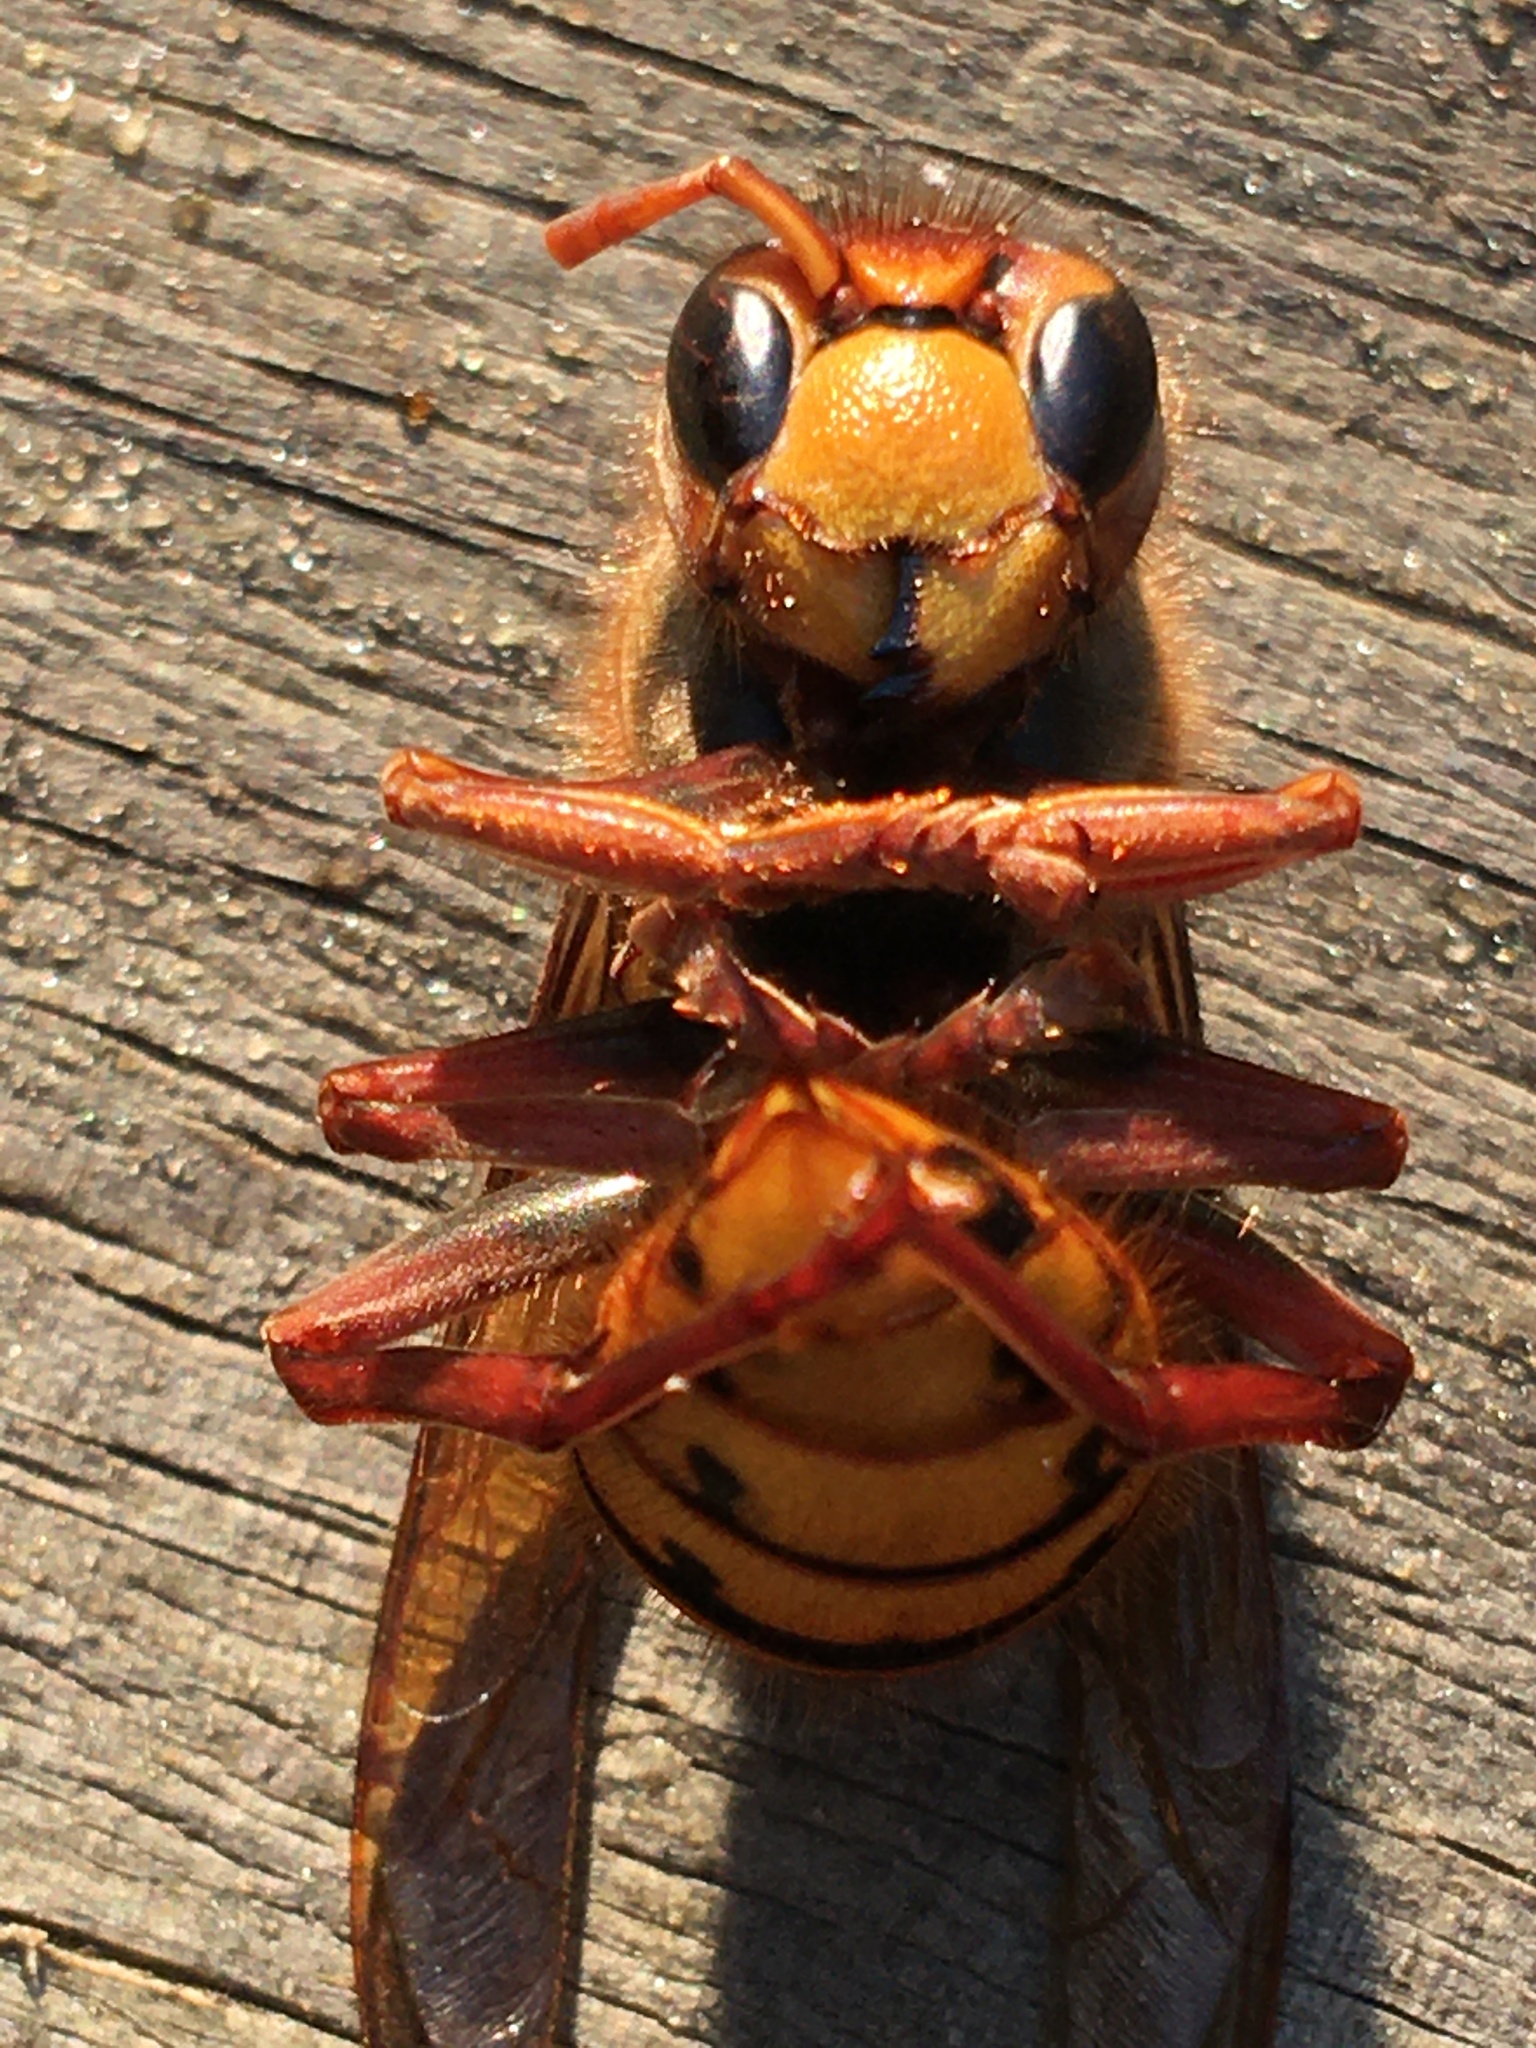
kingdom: Animalia
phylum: Arthropoda
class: Insecta
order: Hymenoptera
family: Vespidae
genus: Vespa
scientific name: Vespa crabro
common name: Hornet
